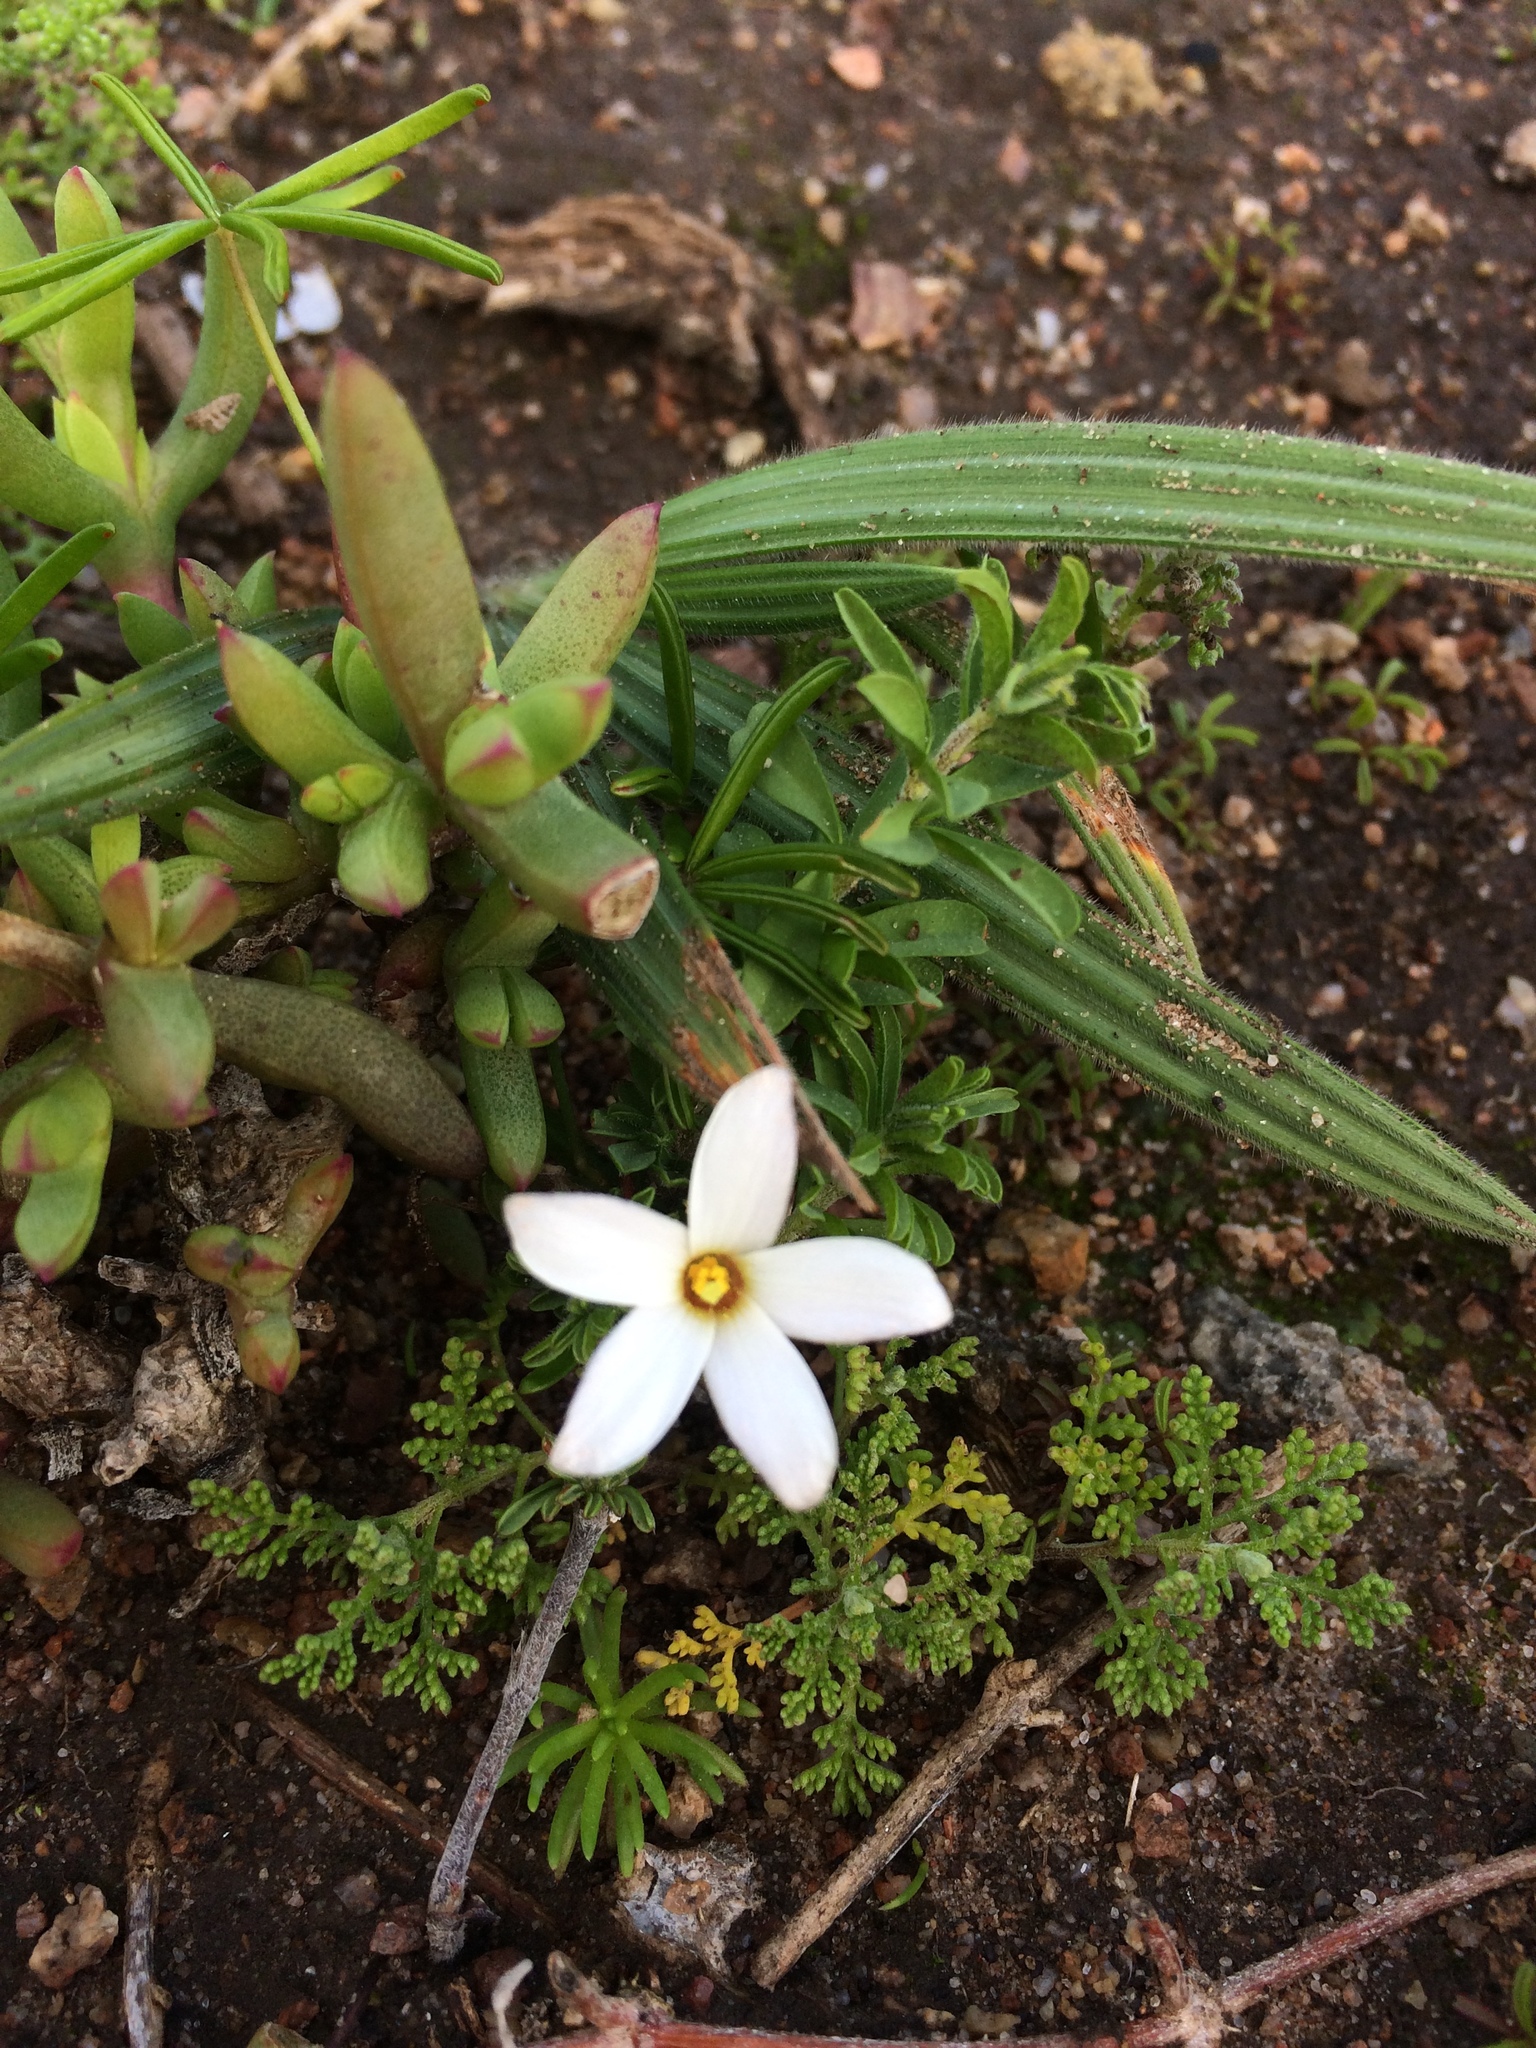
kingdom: Plantae
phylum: Tracheophyta
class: Magnoliopsida
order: Oxalidales
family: Oxalidaceae
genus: Oxalis
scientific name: Oxalis hirta
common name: Tropical woodsorrel
